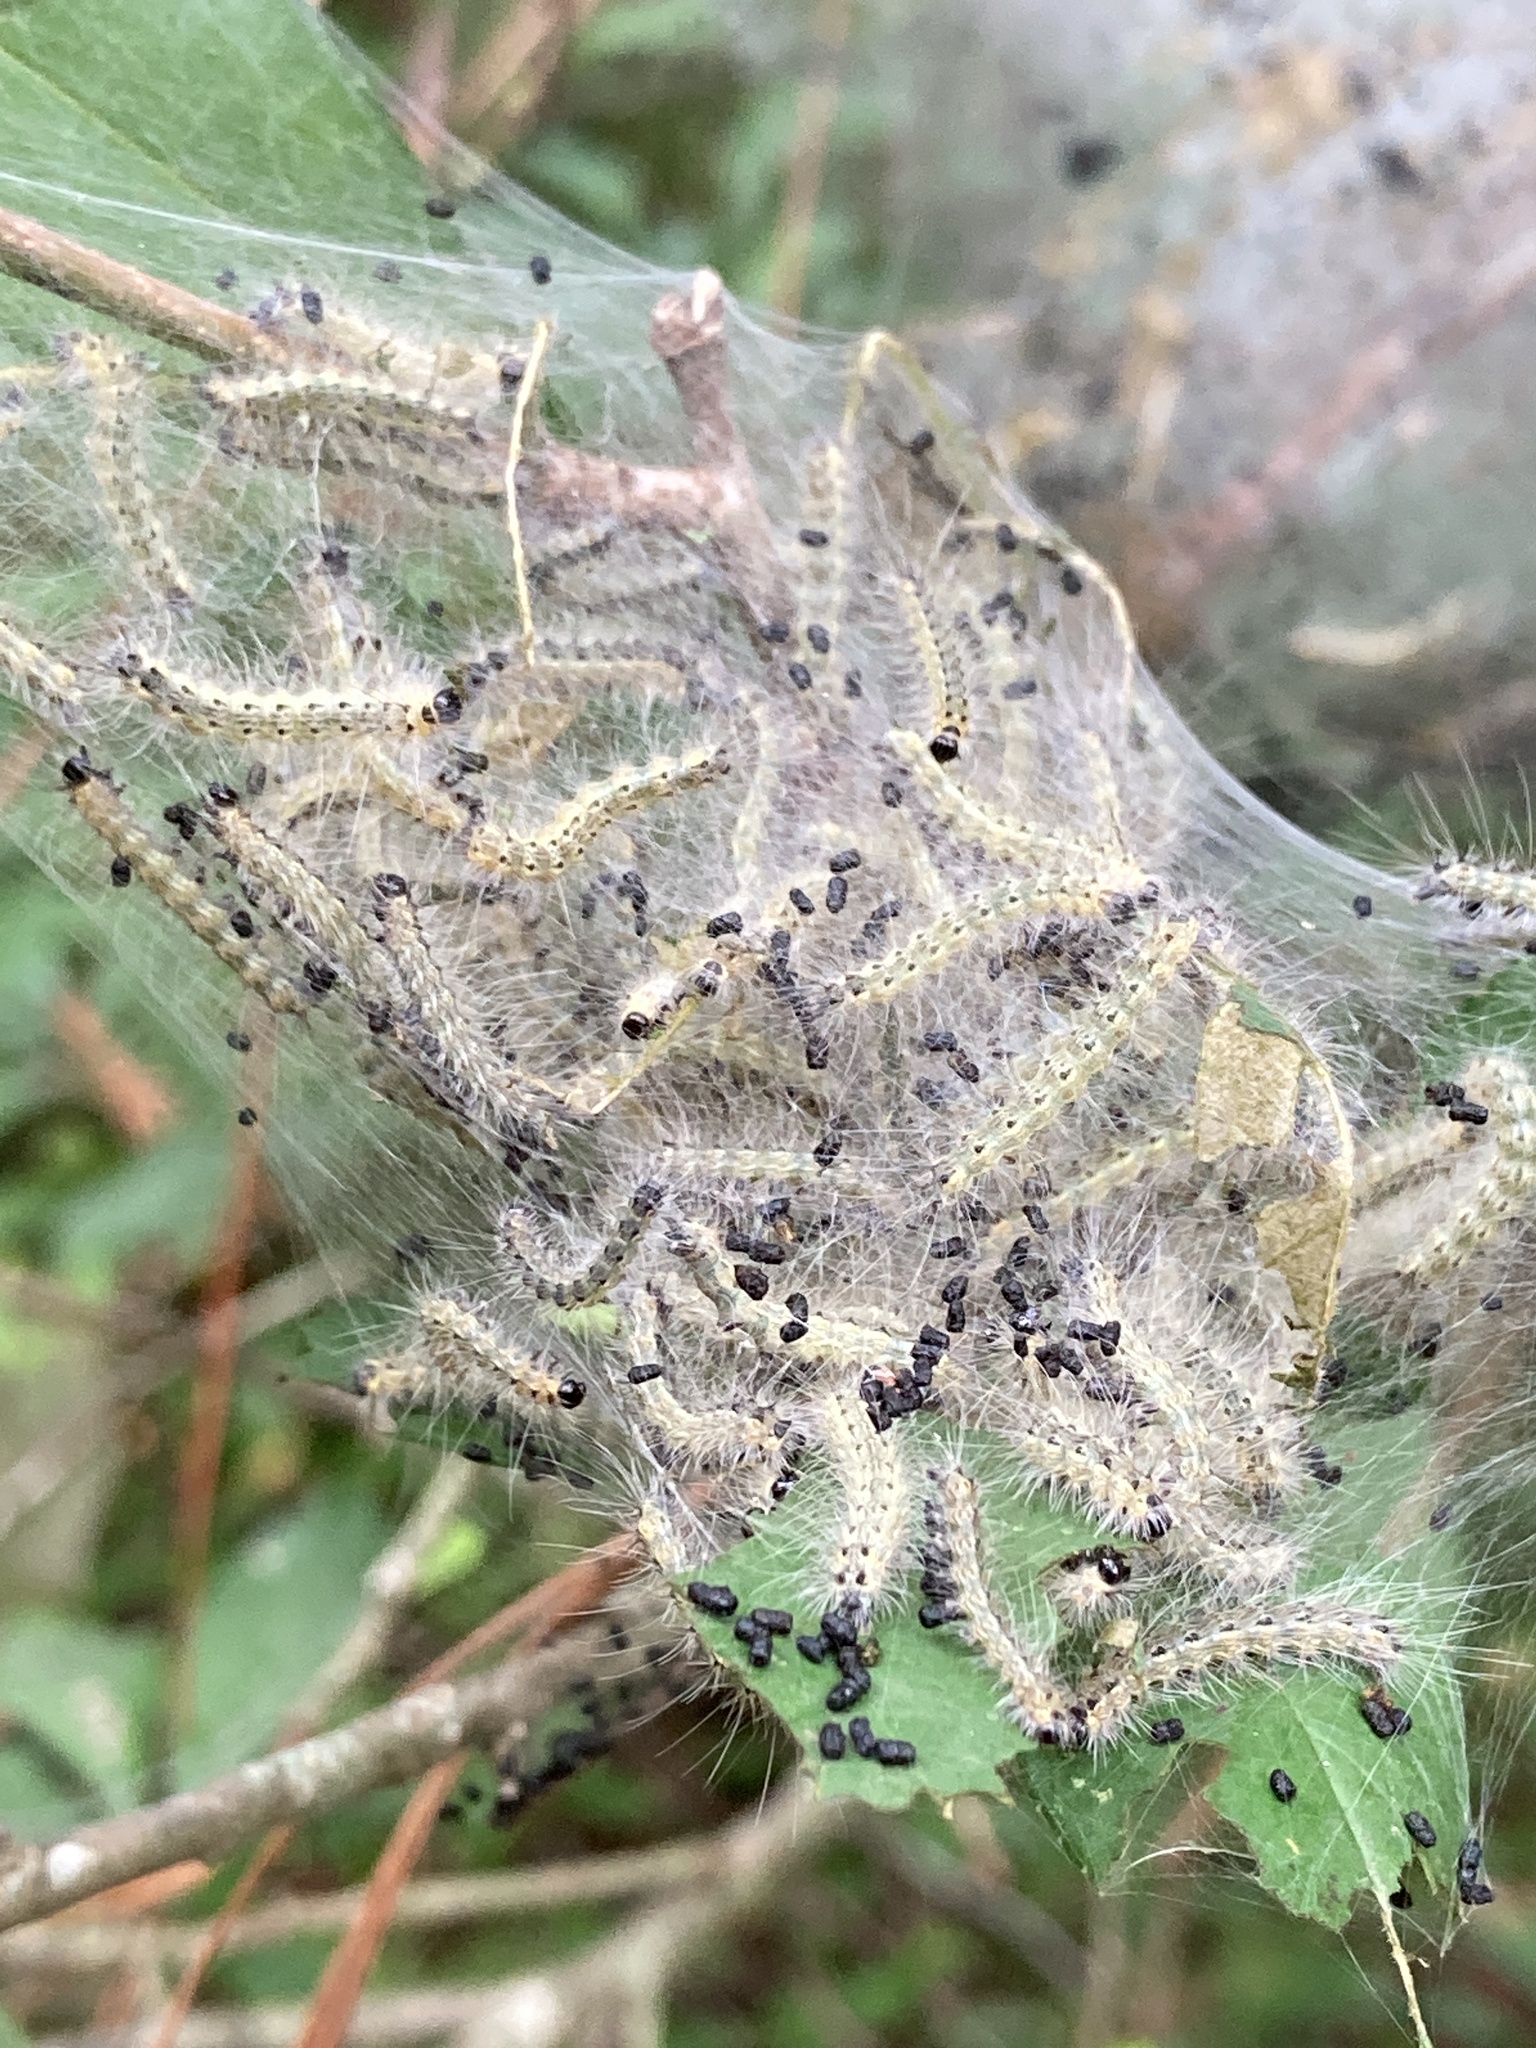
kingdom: Animalia
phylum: Arthropoda
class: Insecta
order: Lepidoptera
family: Erebidae
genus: Hyphantria
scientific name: Hyphantria cunea
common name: American white moth
